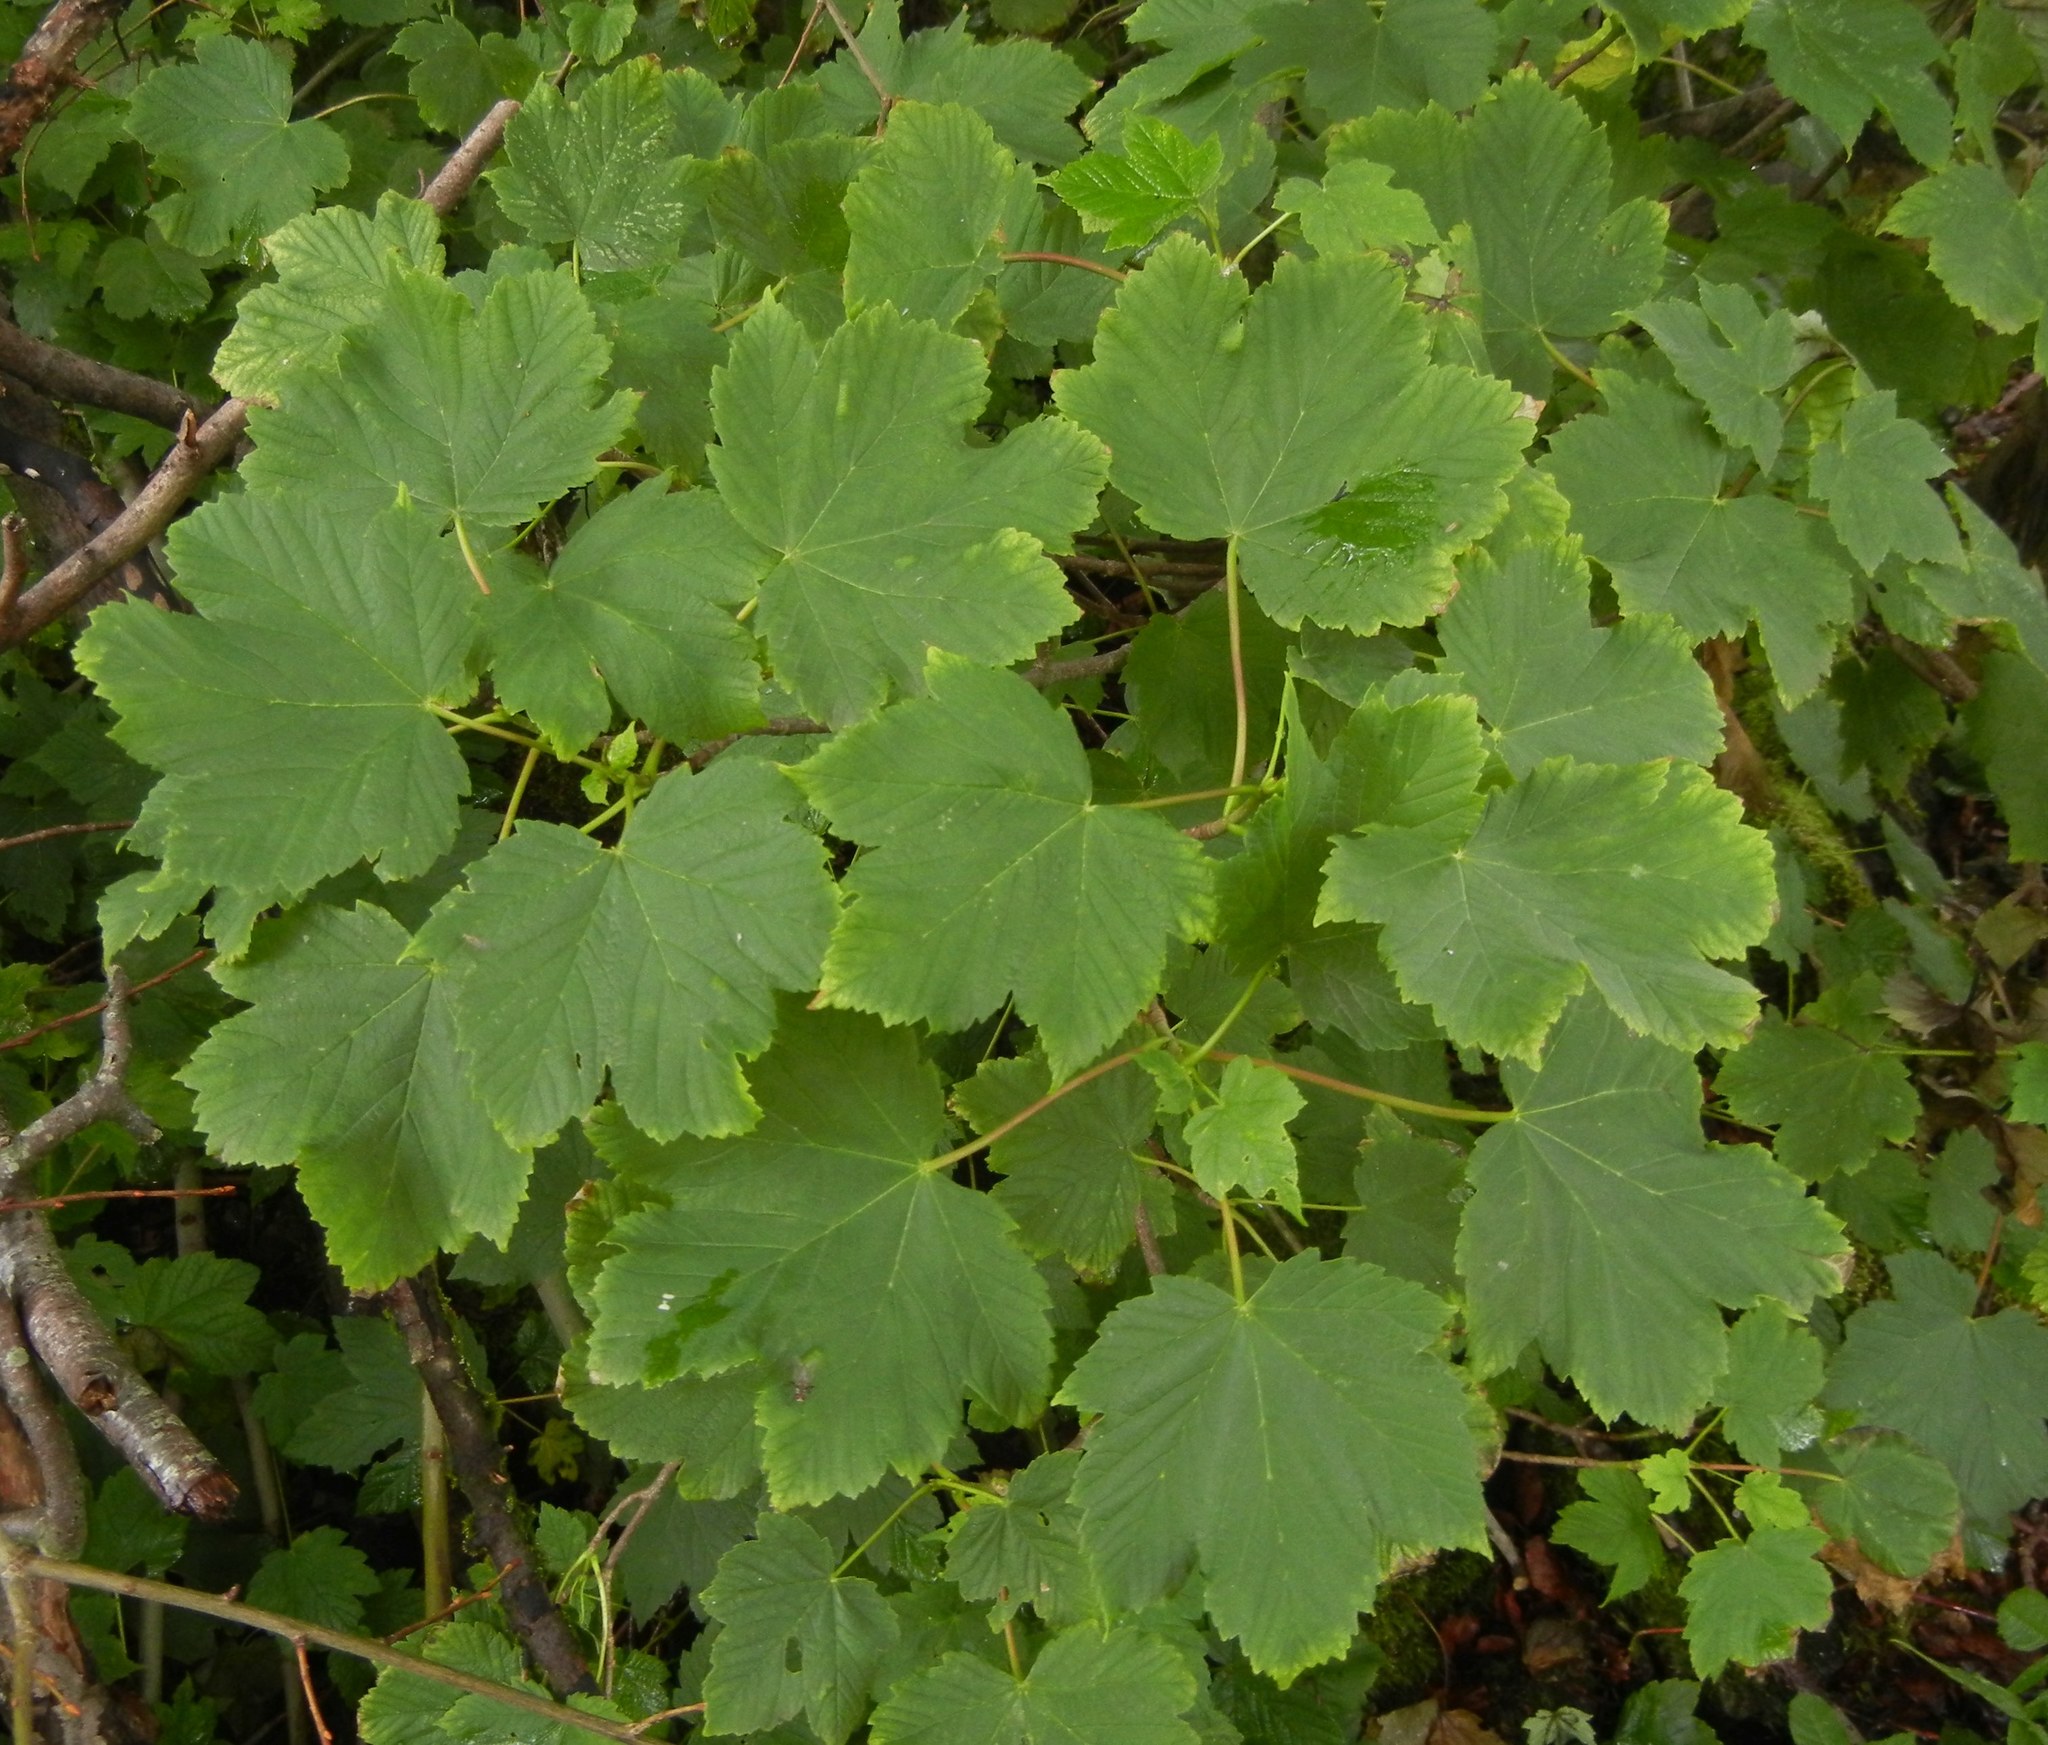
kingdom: Plantae
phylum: Tracheophyta
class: Magnoliopsida
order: Sapindales
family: Sapindaceae
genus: Acer
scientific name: Acer pseudoplatanus
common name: Sycamore
